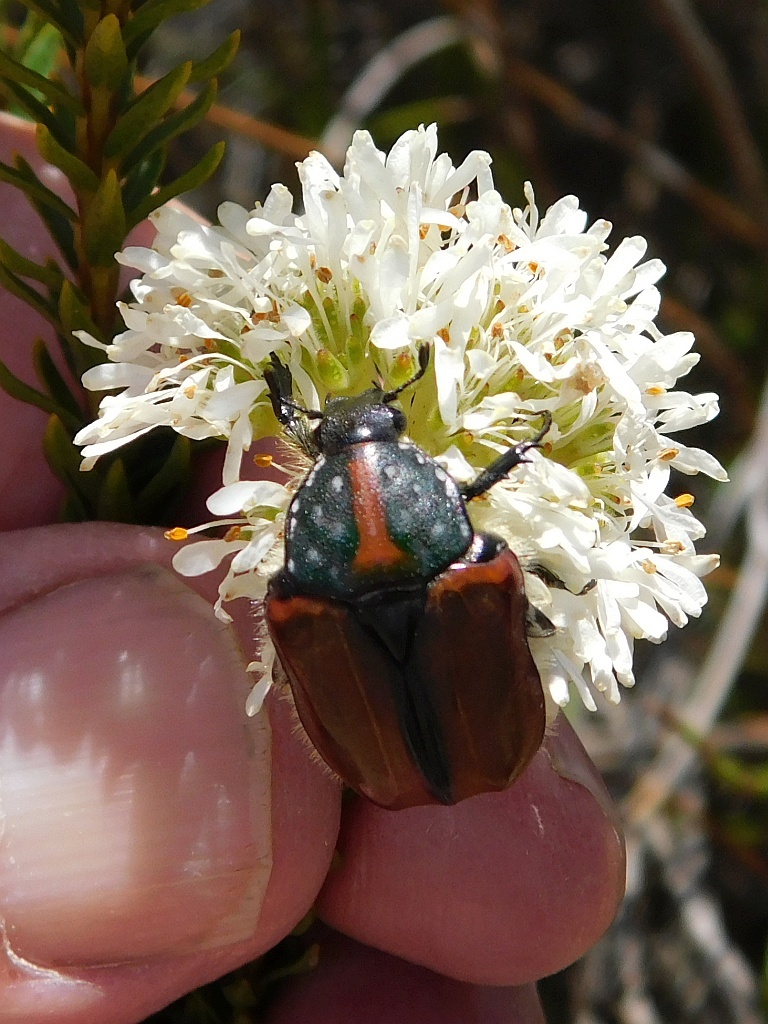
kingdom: Animalia
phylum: Arthropoda
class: Insecta
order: Coleoptera
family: Scarabaeidae
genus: Trichostetha
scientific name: Trichostetha capensis
